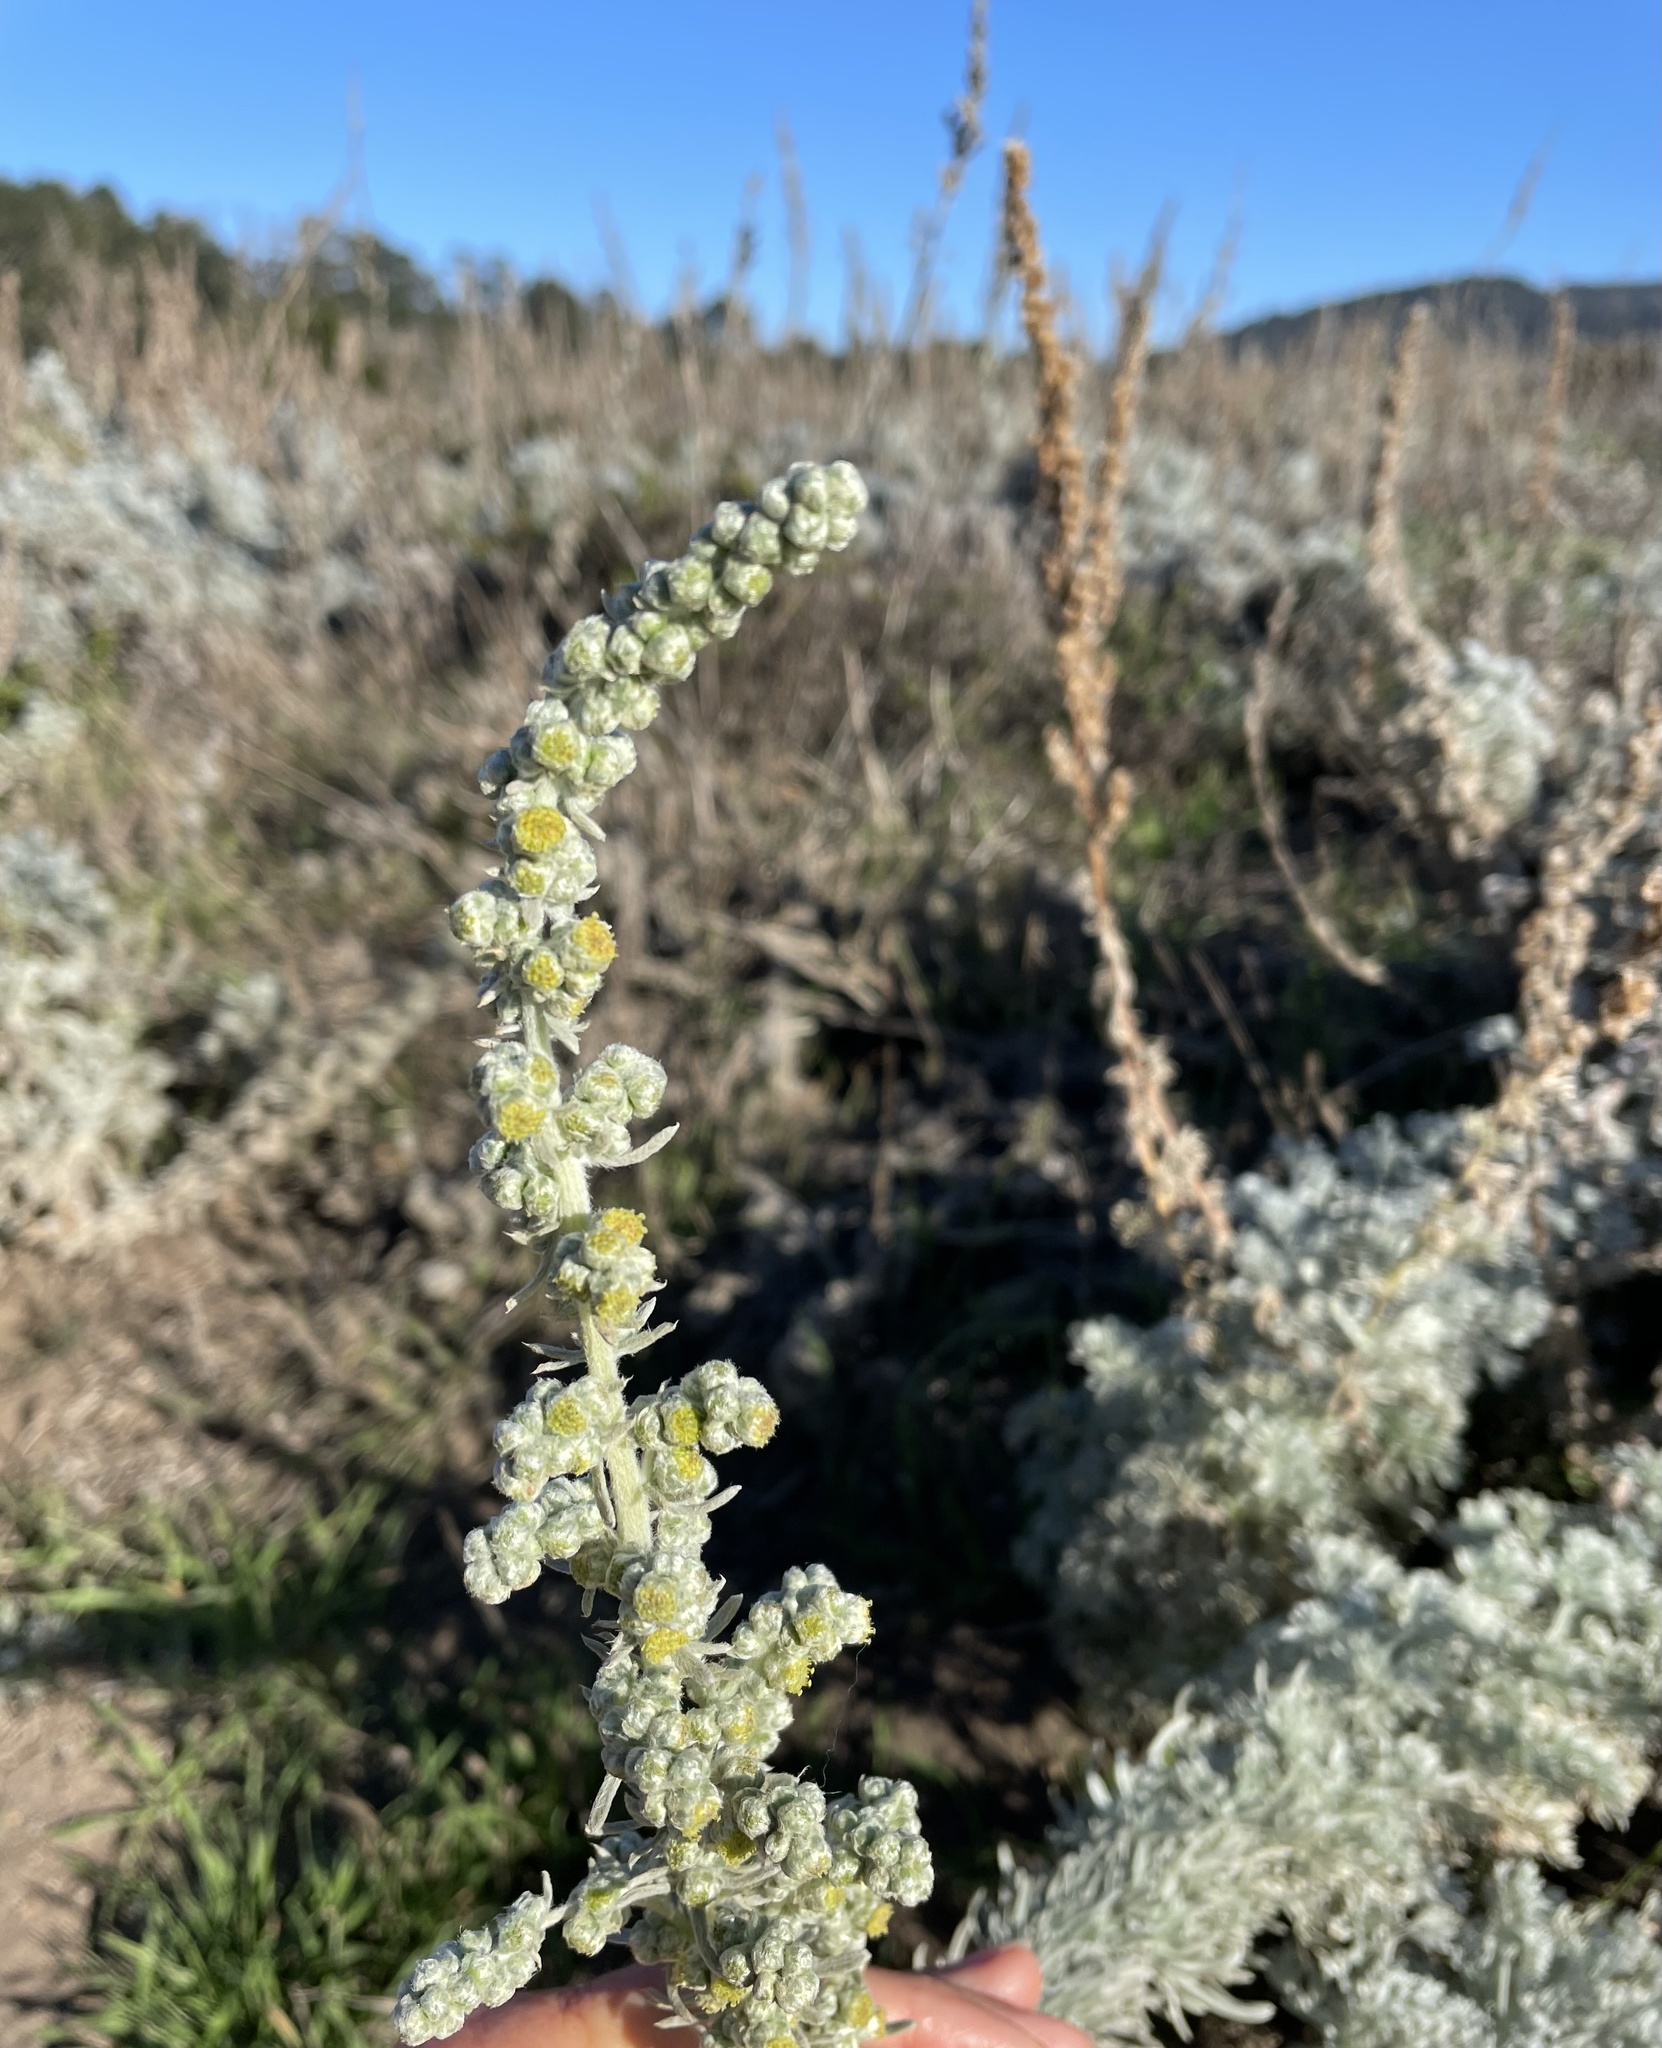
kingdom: Plantae
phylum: Tracheophyta
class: Magnoliopsida
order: Asterales
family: Asteraceae
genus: Artemisia
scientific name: Artemisia pycnocephala
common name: Coastal sagewort
